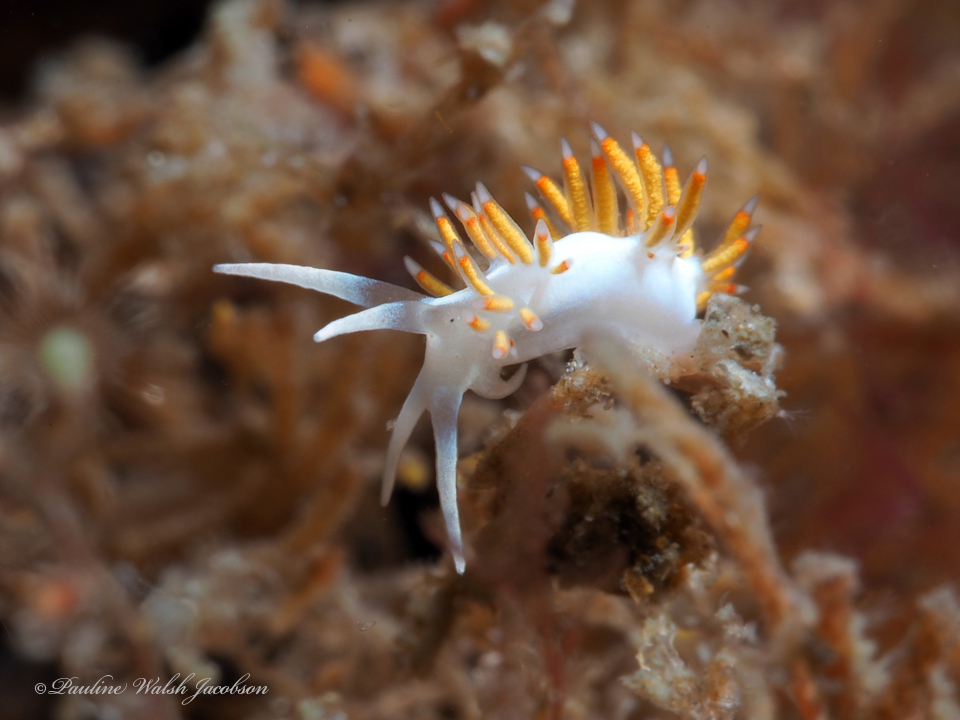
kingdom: Animalia
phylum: Mollusca
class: Gastropoda
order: Nudibranchia
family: Flabellinidae
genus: Flabellina
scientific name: Flabellina dushia
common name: Dushia flabellina
